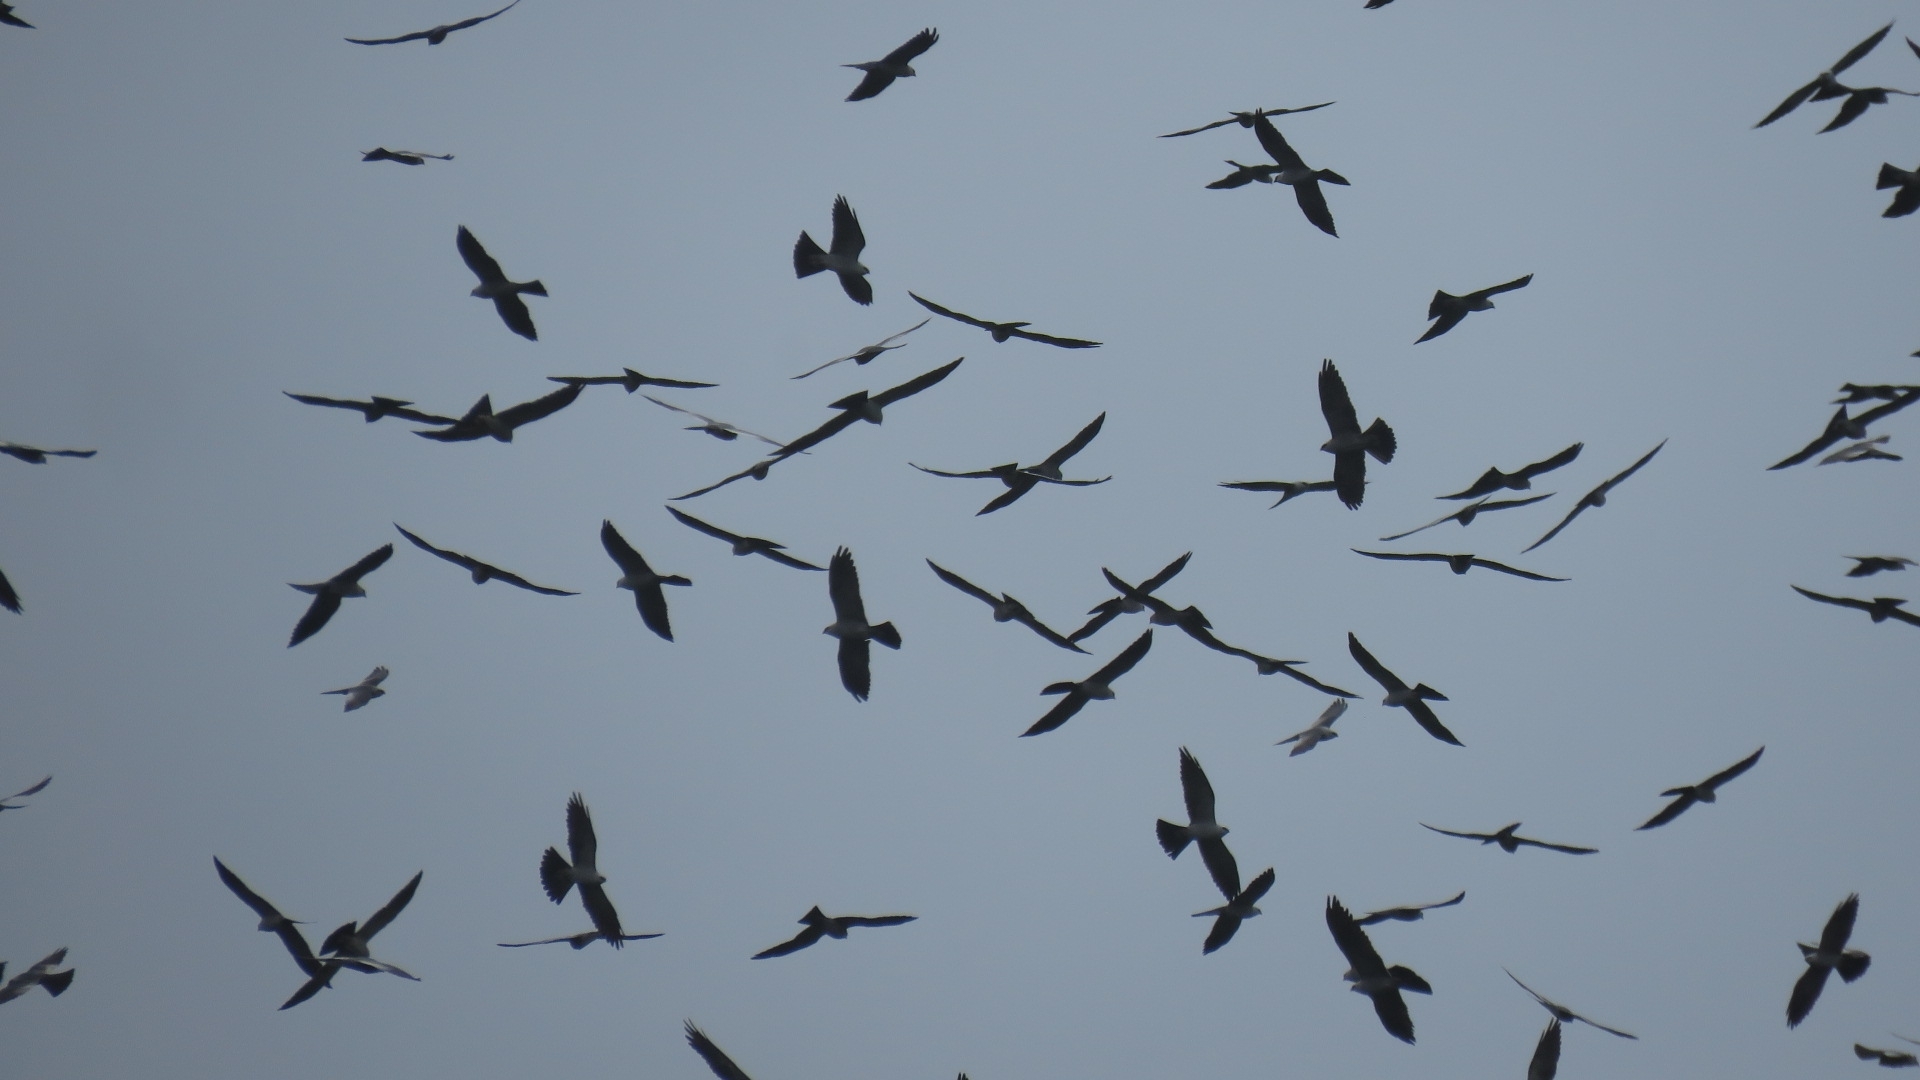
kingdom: Animalia
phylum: Chordata
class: Aves
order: Accipitriformes
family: Accipitridae
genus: Ictinia
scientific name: Ictinia mississippiensis
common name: Mississippi kite
